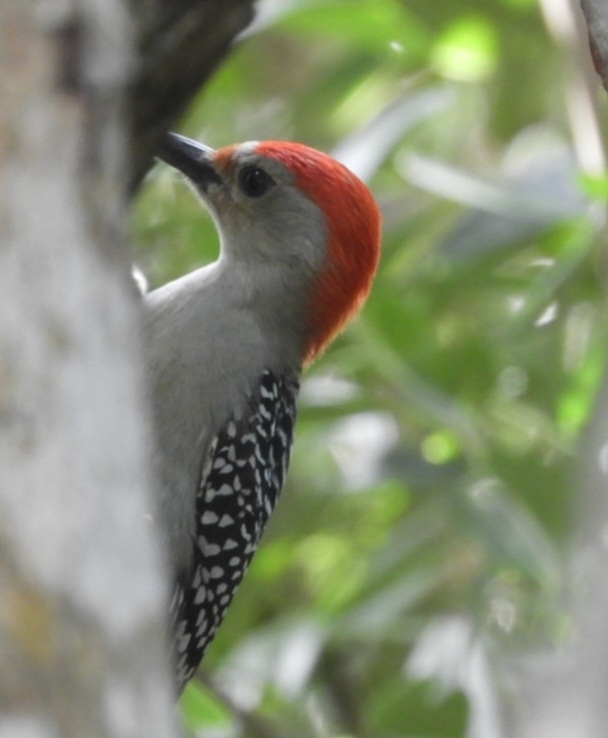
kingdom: Animalia
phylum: Chordata
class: Aves
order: Piciformes
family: Picidae
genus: Melanerpes
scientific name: Melanerpes carolinus
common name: Red-bellied woodpecker
